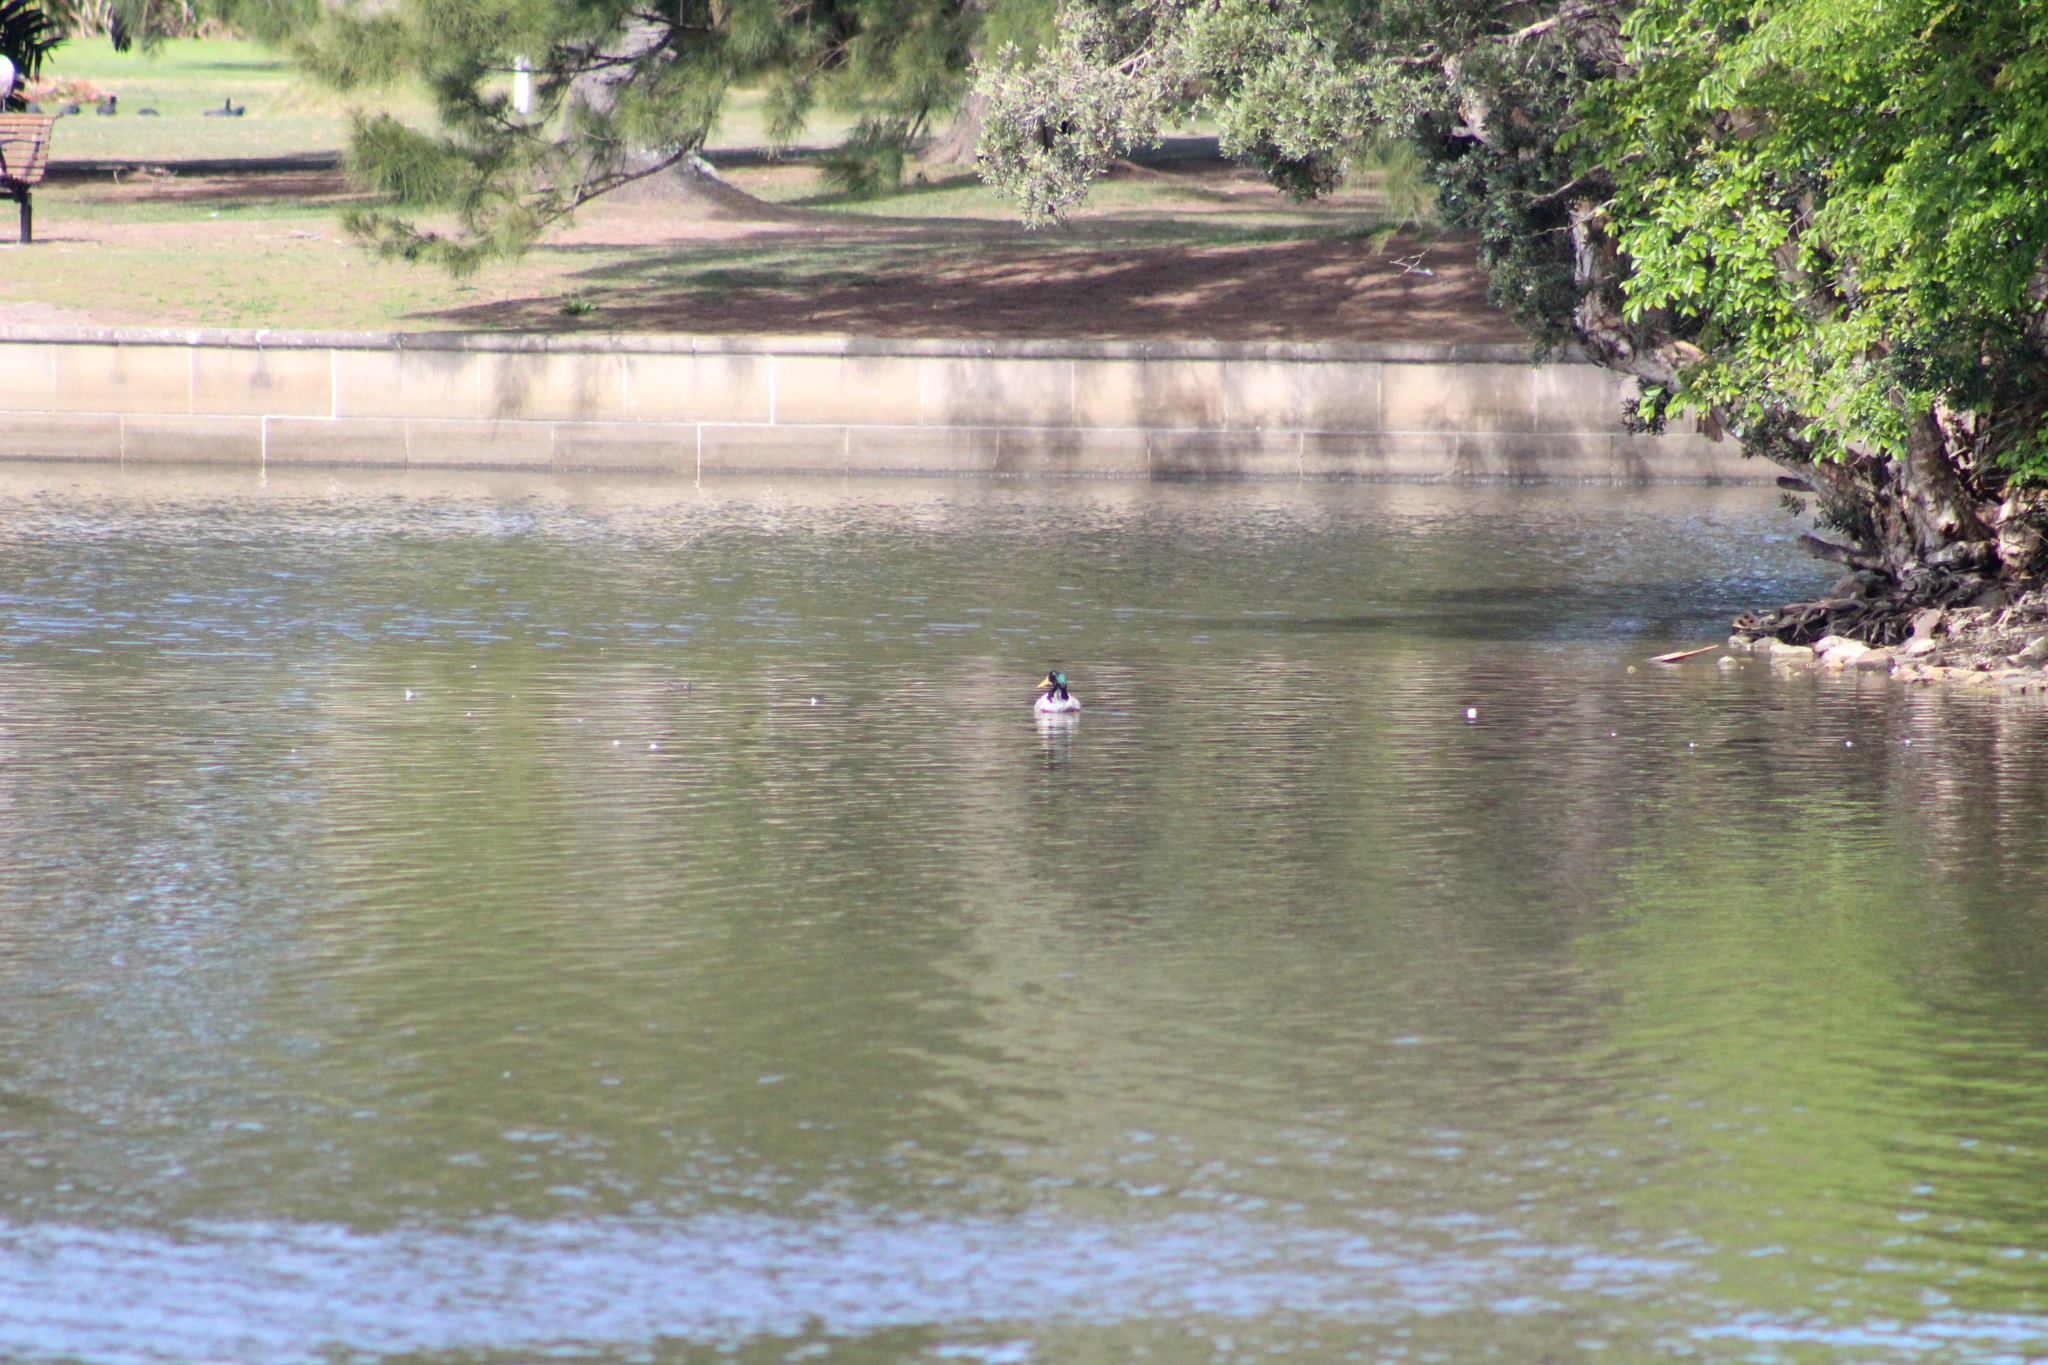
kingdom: Animalia
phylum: Chordata
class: Aves
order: Anseriformes
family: Anatidae
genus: Anas
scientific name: Anas platyrhynchos
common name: Mallard
